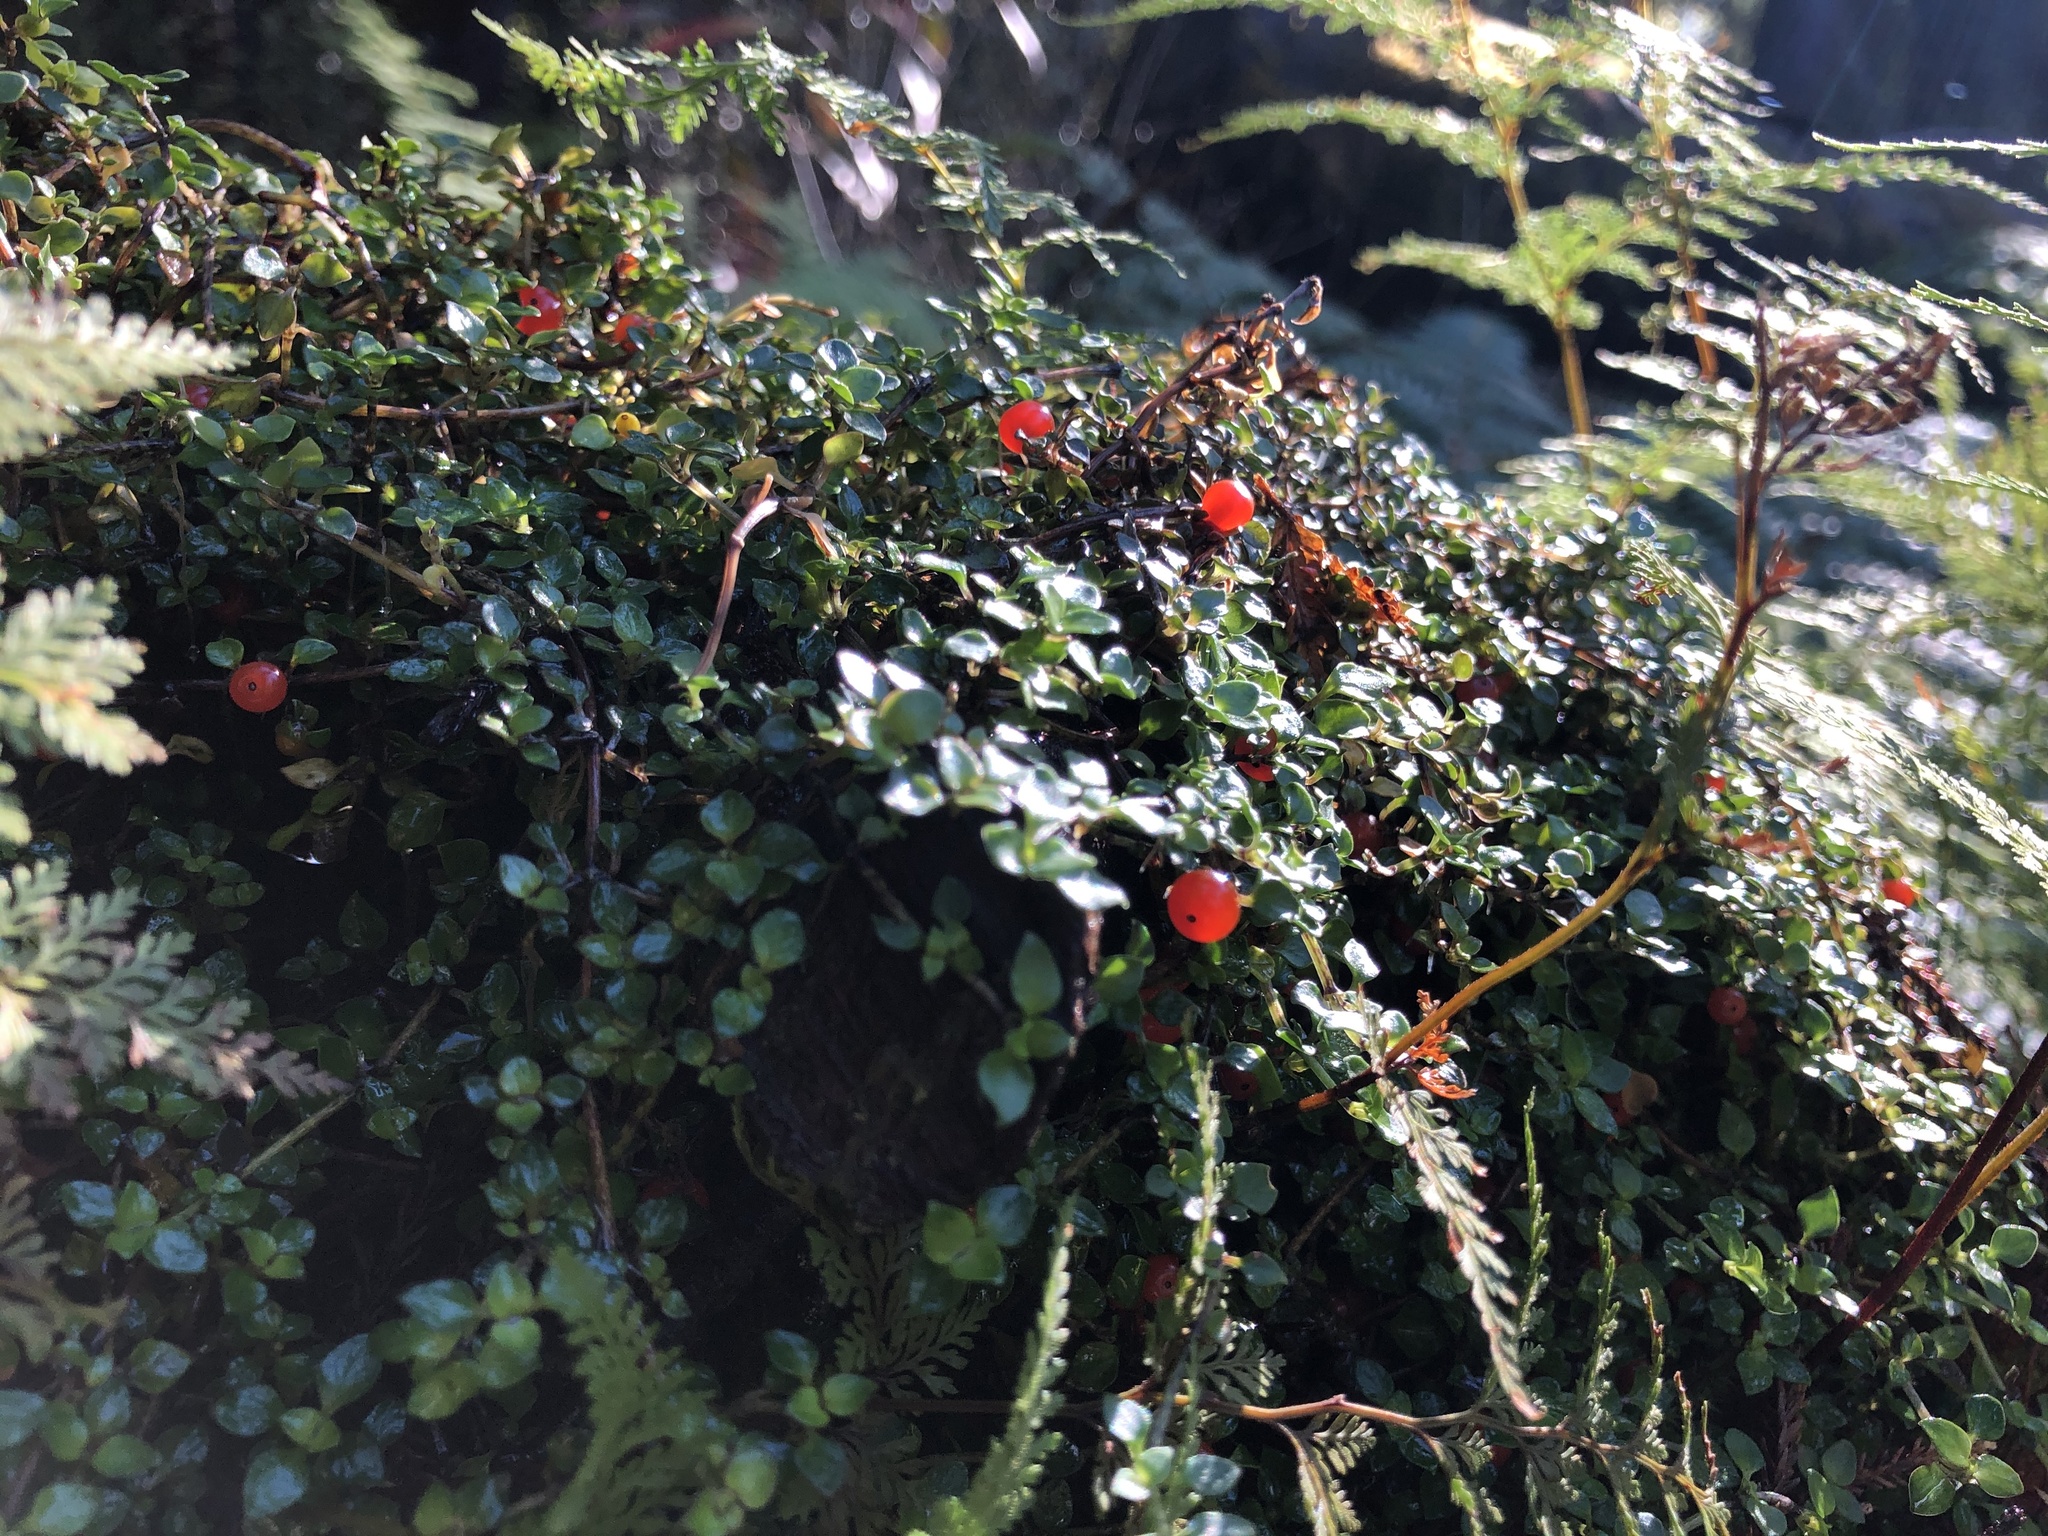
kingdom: Plantae
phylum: Tracheophyta
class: Magnoliopsida
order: Gentianales
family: Rubiaceae
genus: Nertera
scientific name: Nertera granadensis
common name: Beadplant
